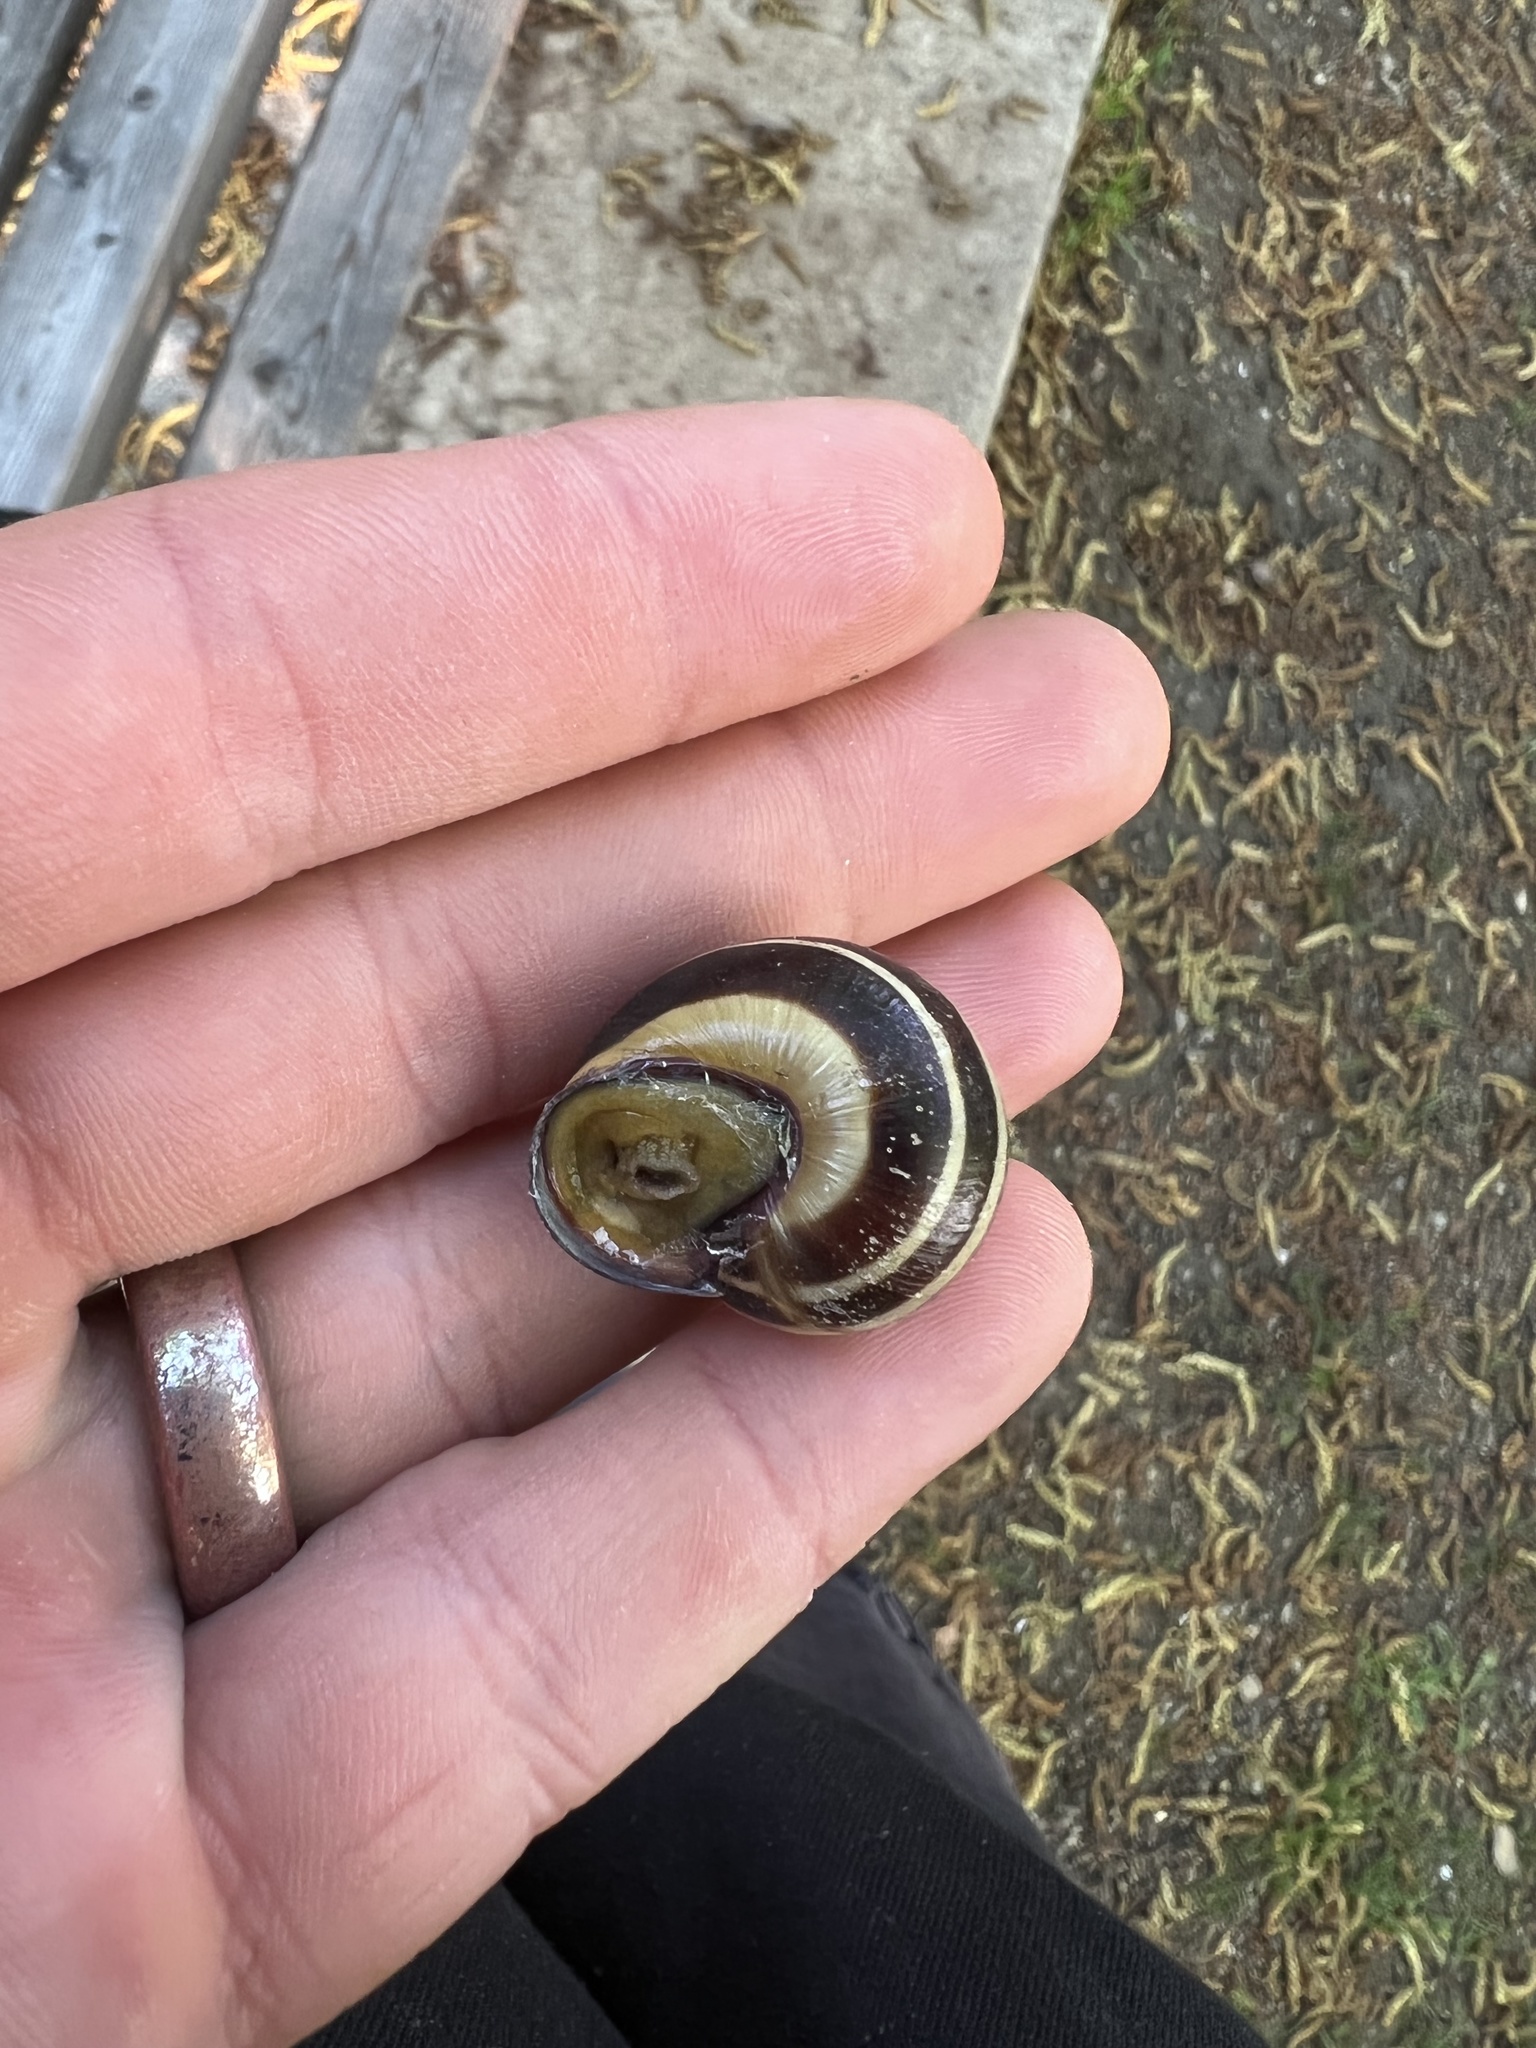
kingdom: Animalia
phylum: Mollusca
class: Gastropoda
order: Stylommatophora
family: Helicidae
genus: Cepaea
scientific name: Cepaea nemoralis
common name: Grovesnail
